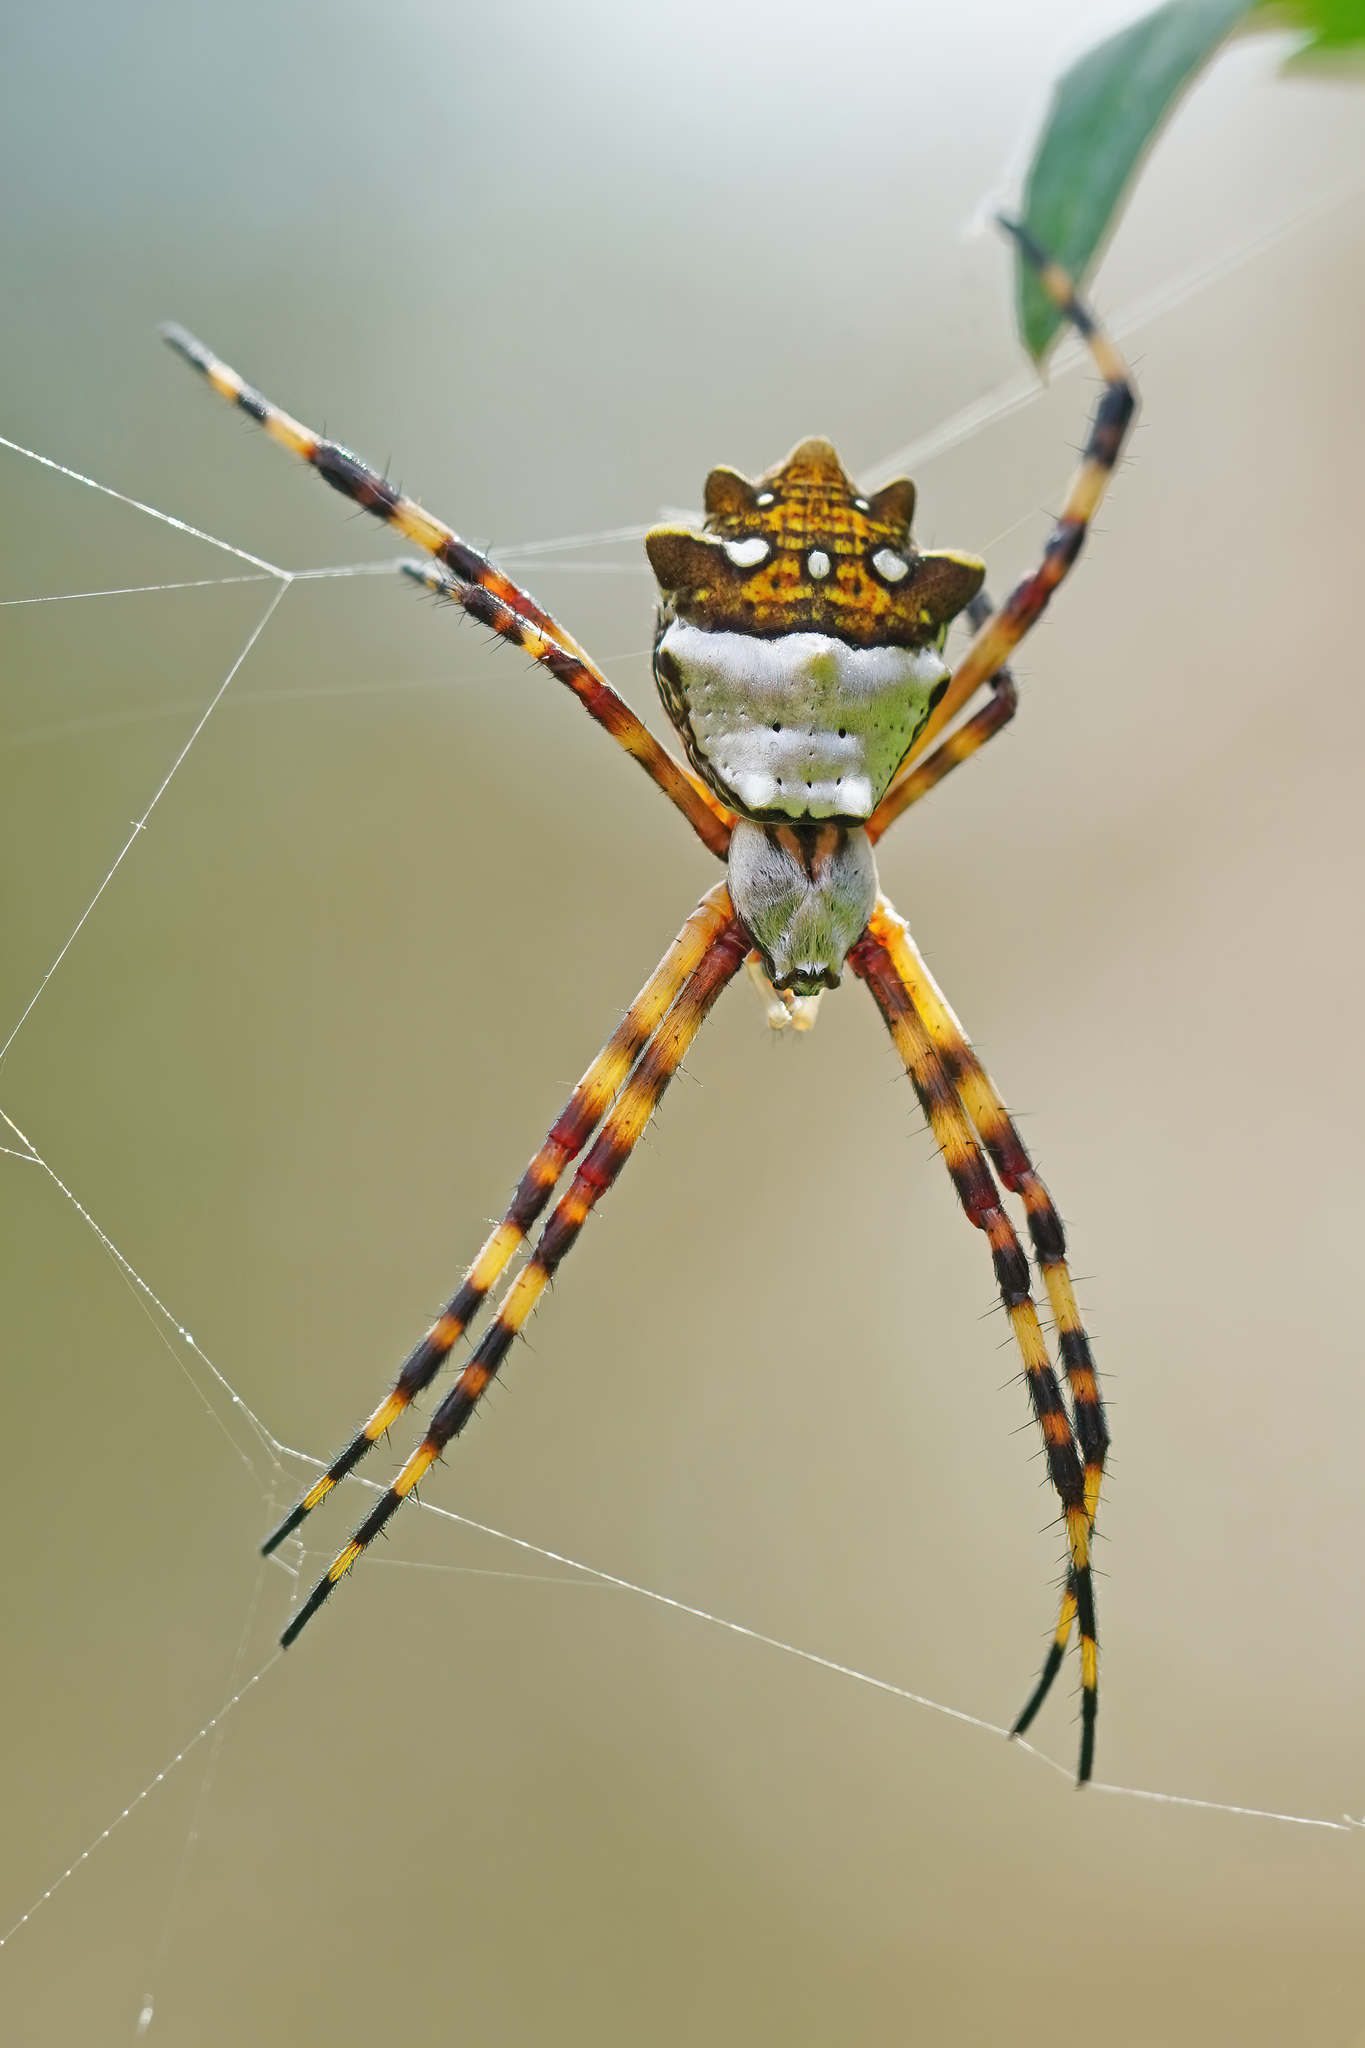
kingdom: Animalia
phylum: Arthropoda
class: Arachnida
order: Araneae
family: Araneidae
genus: Argiope
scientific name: Argiope argentata
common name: Orb weavers
